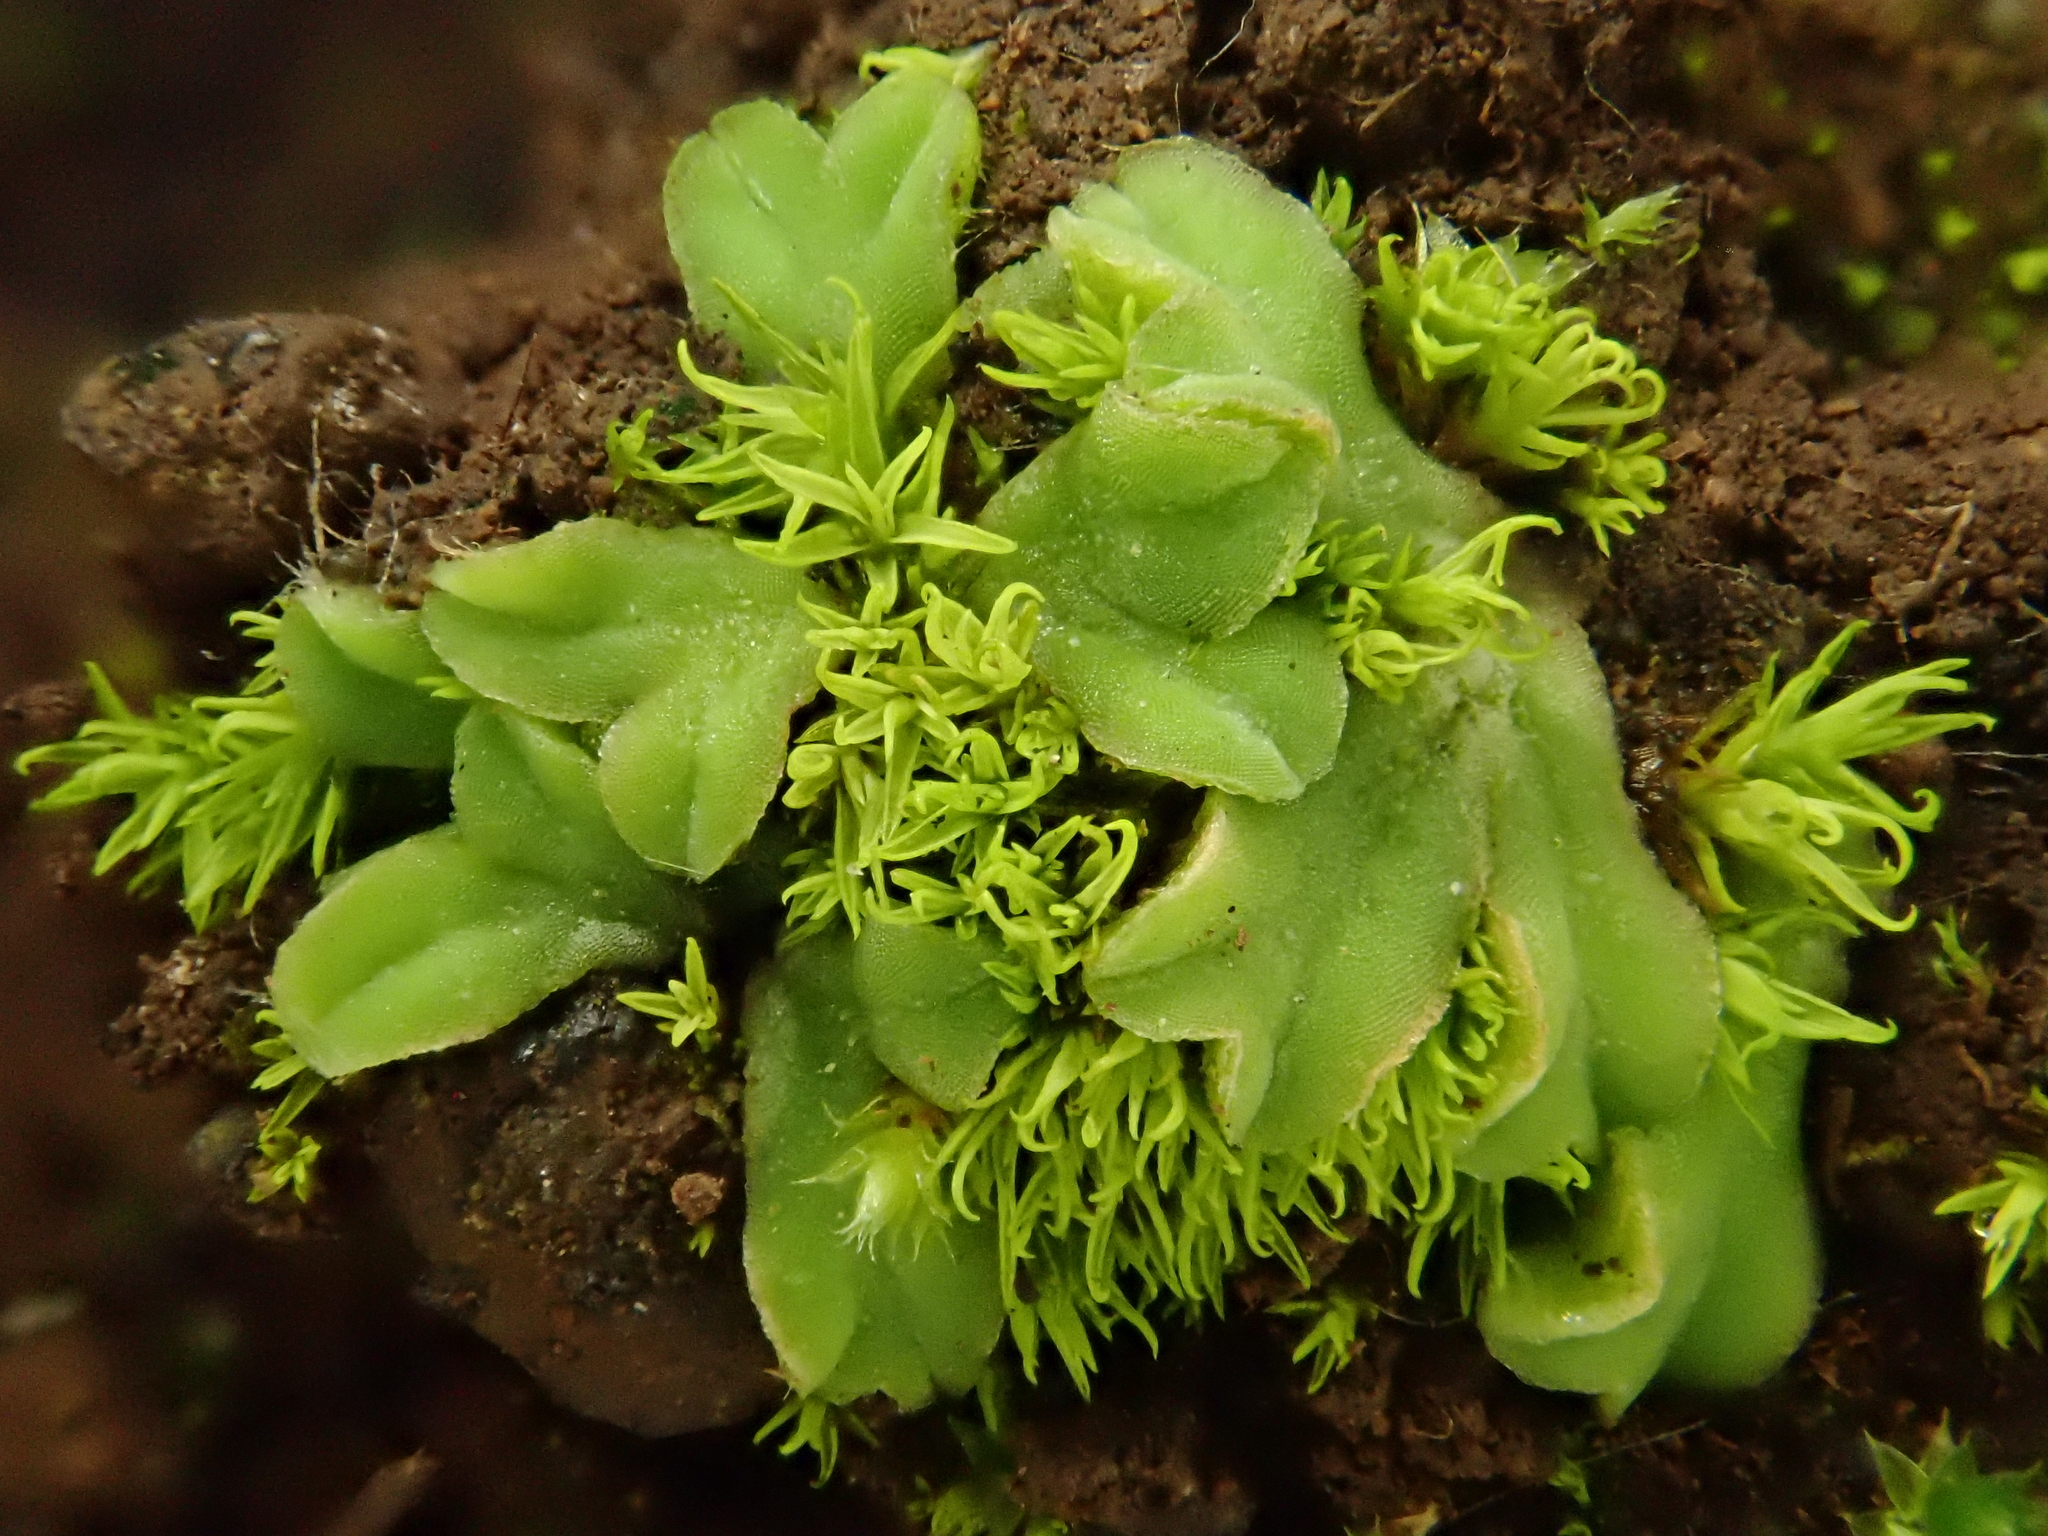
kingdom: Plantae
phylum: Marchantiophyta
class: Marchantiopsida
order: Marchantiales
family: Ricciaceae
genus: Riccia
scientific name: Riccia sorocarpa
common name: Common crystalwort
